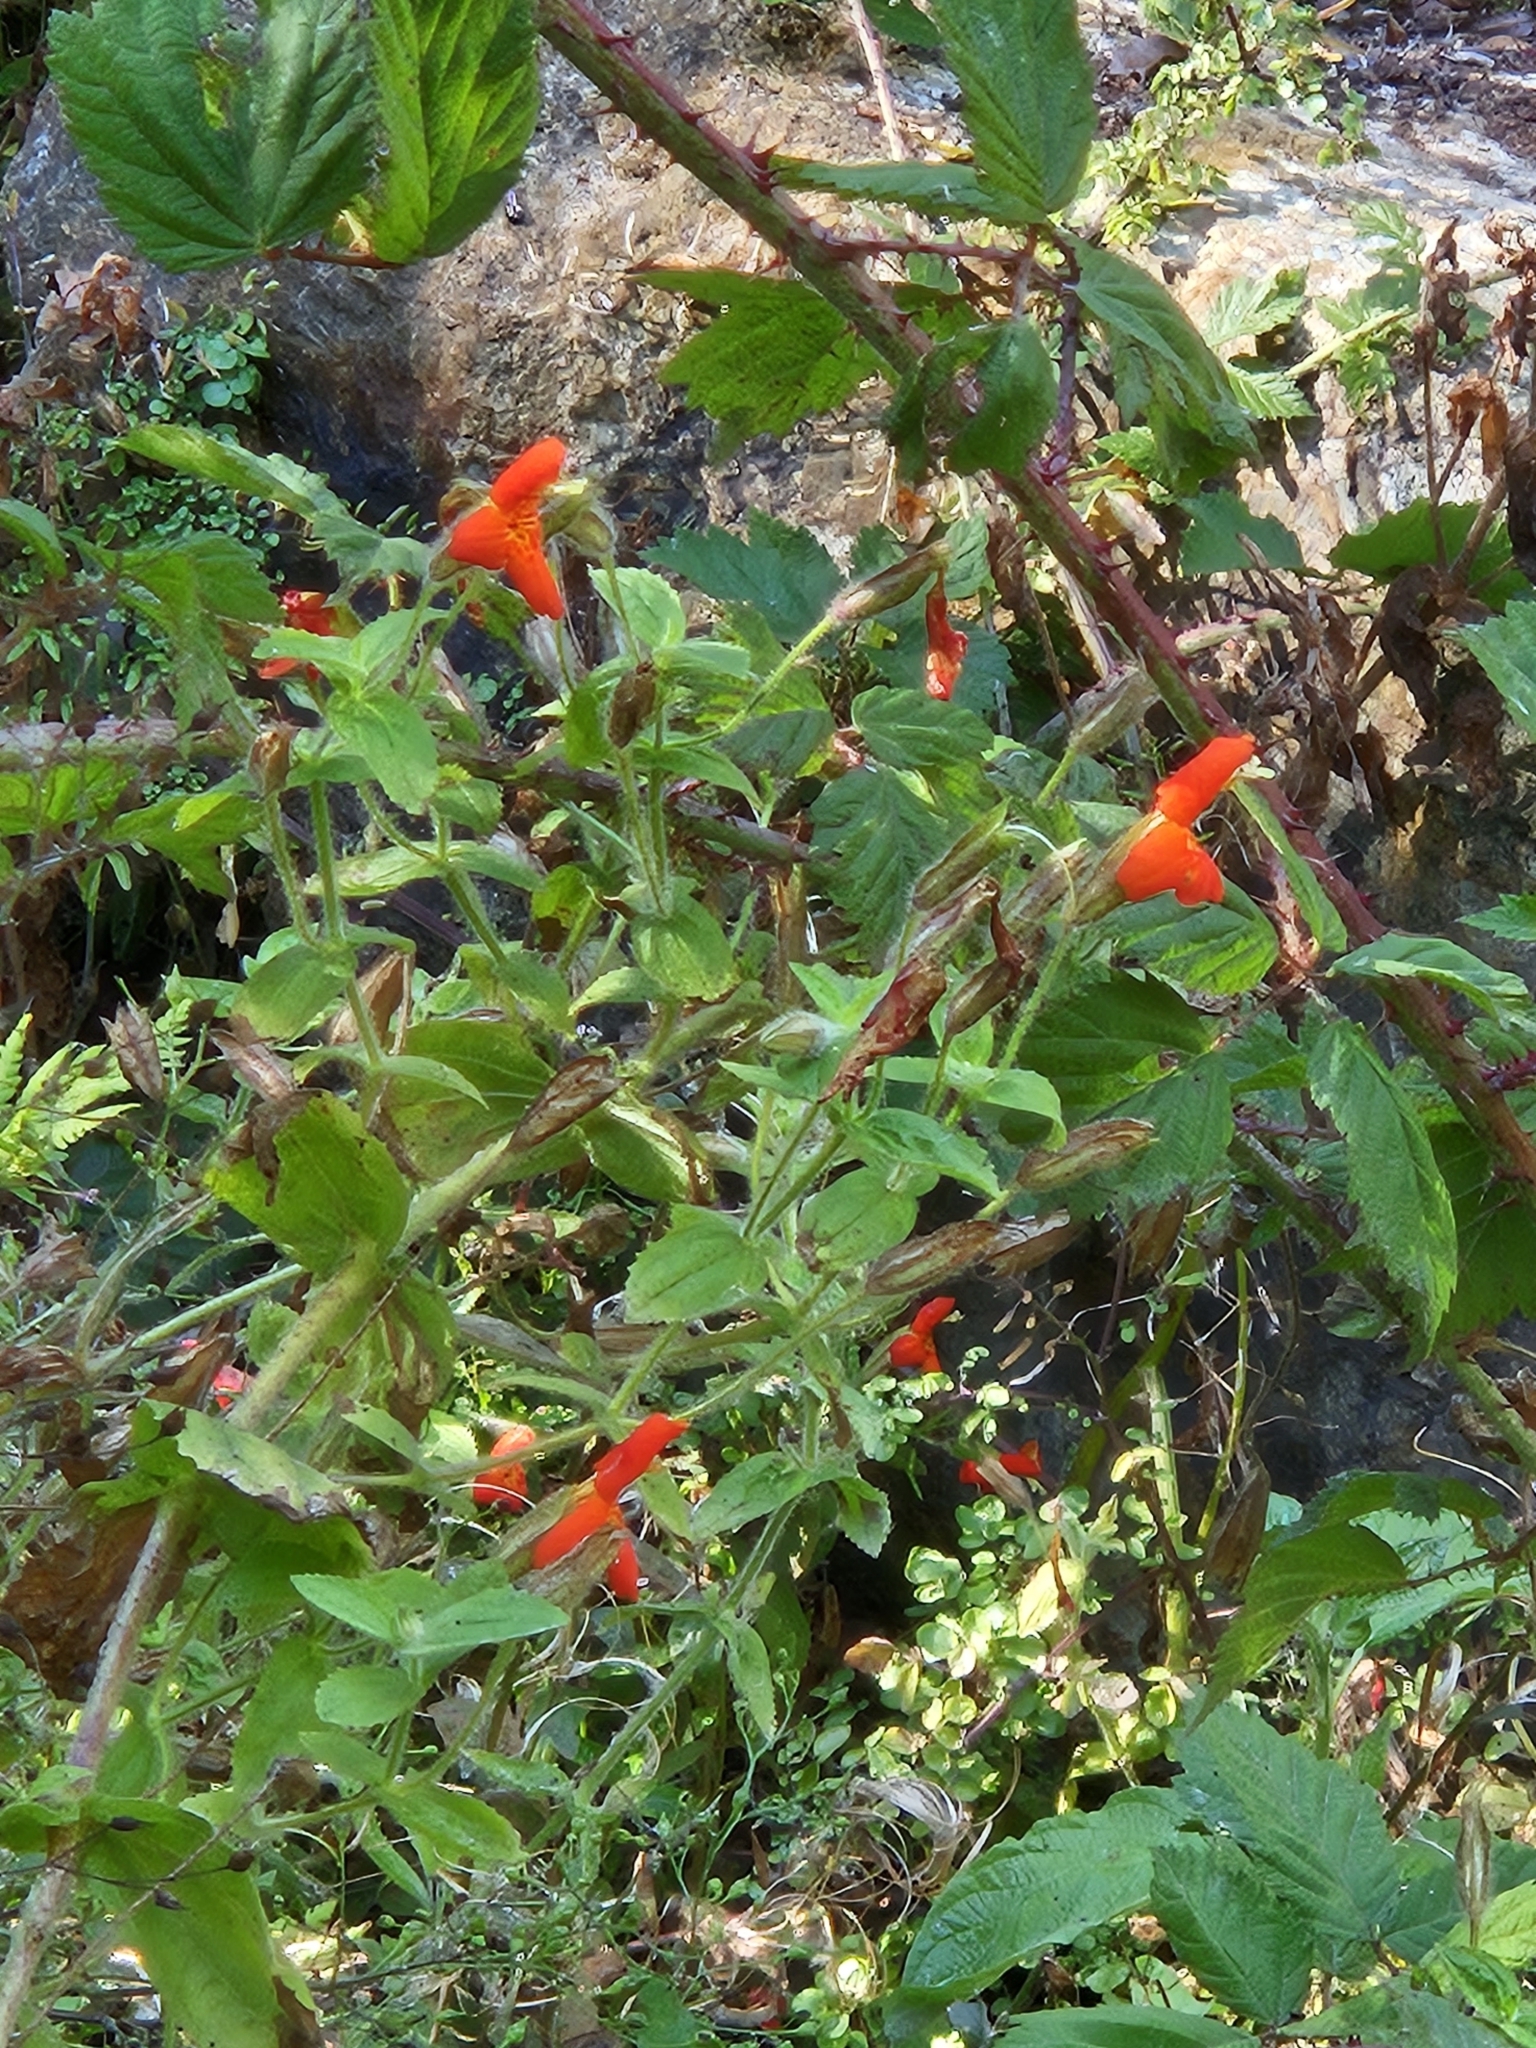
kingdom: Plantae
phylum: Tracheophyta
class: Magnoliopsida
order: Lamiales
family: Phrymaceae
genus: Erythranthe
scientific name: Erythranthe cardinalis
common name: Scarlet monkey-flower
